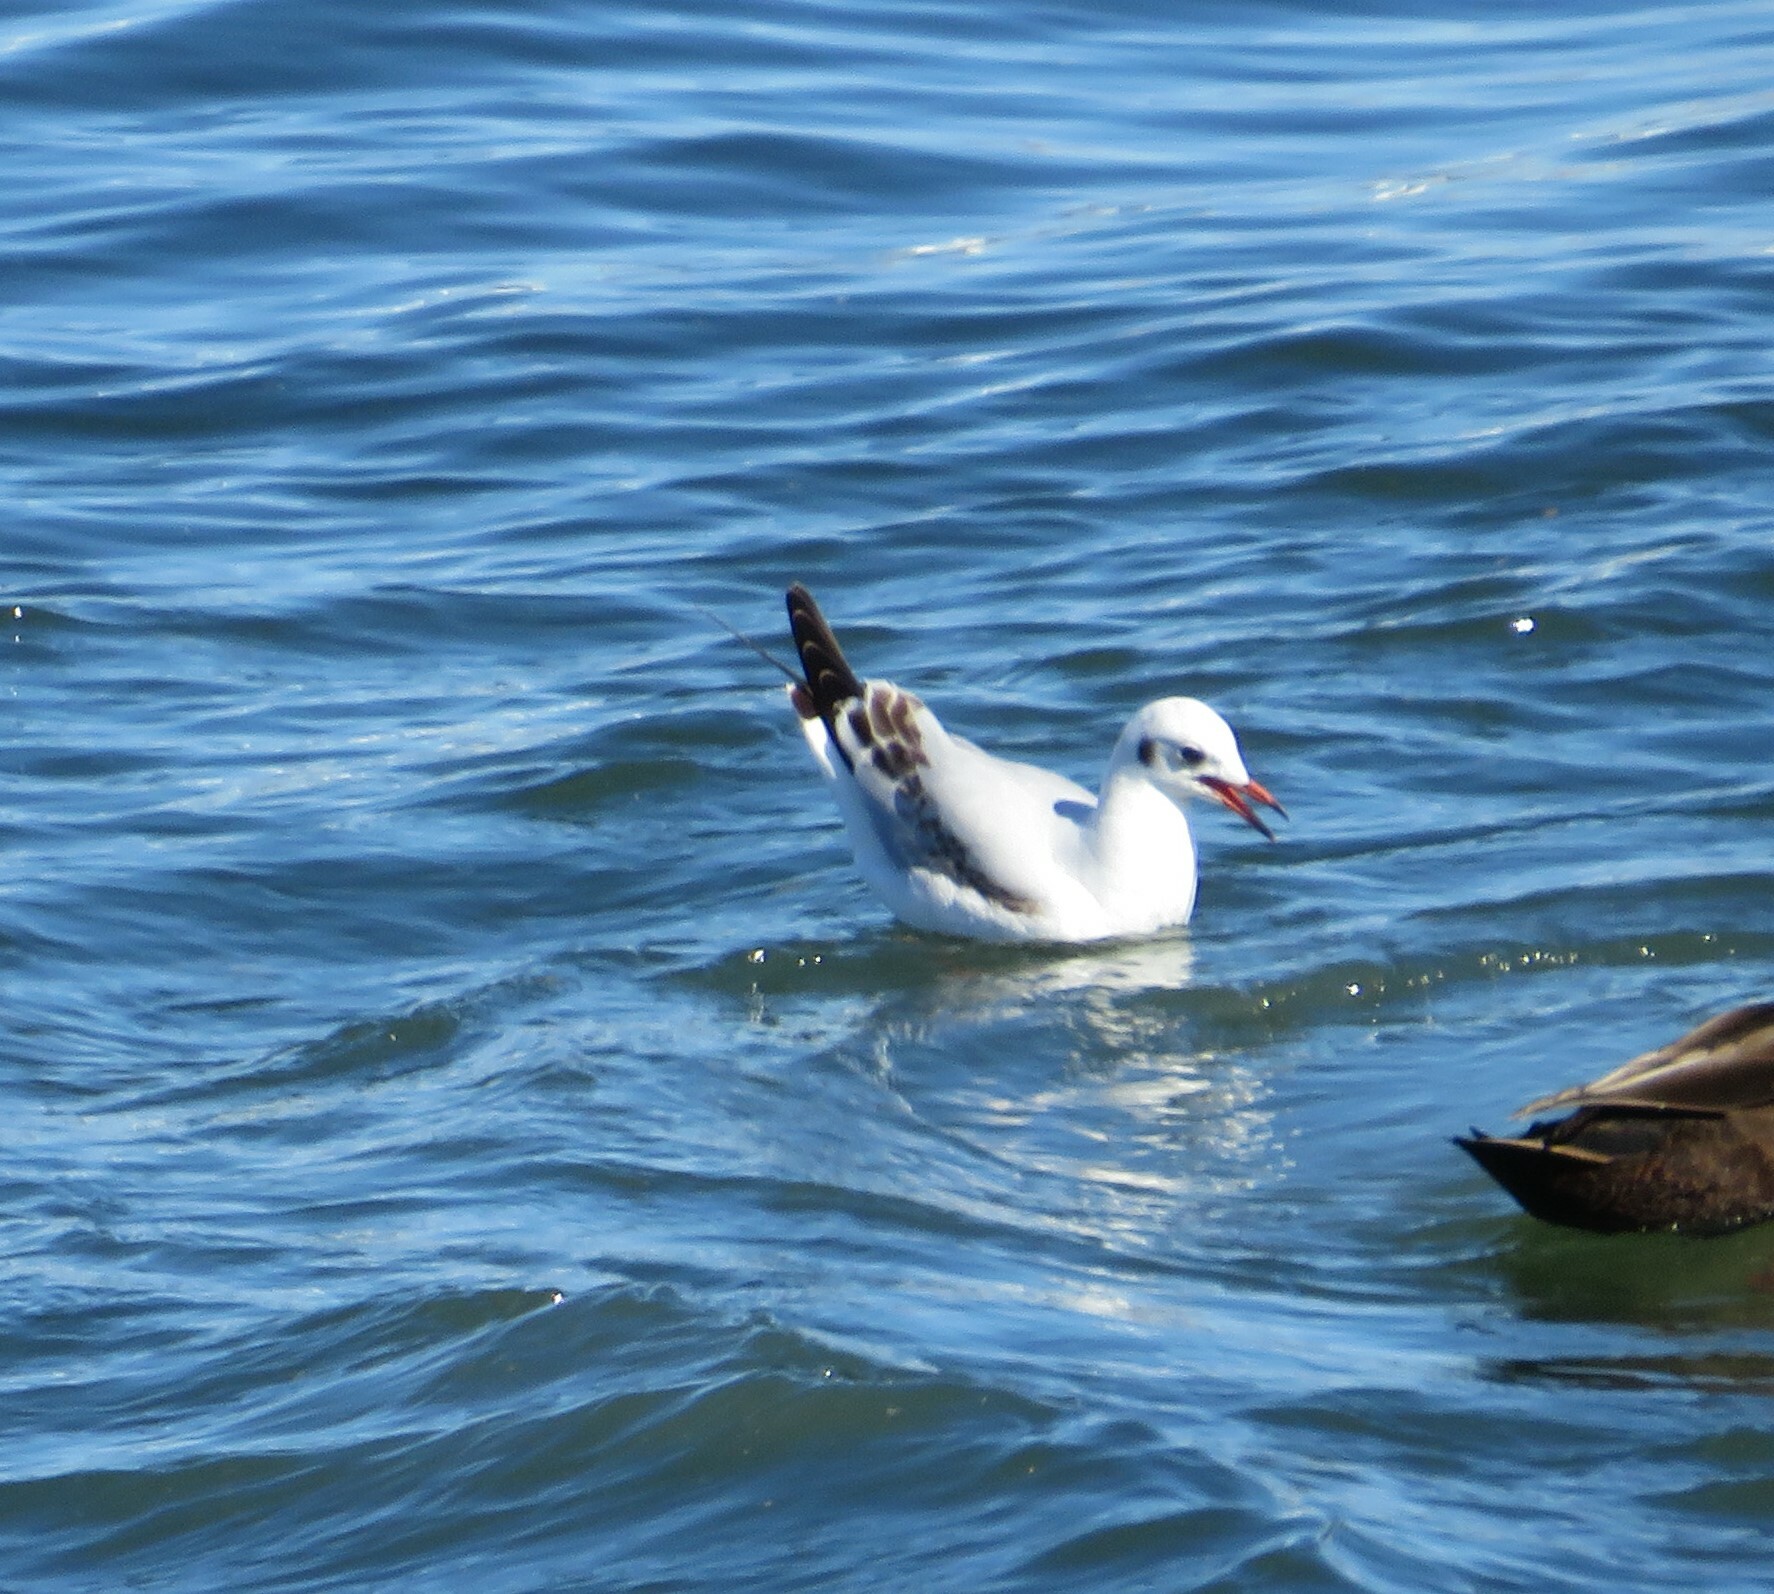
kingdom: Animalia
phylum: Chordata
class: Aves
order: Charadriiformes
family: Laridae
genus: Chroicocephalus
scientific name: Chroicocephalus ridibundus
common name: Black-headed gull
